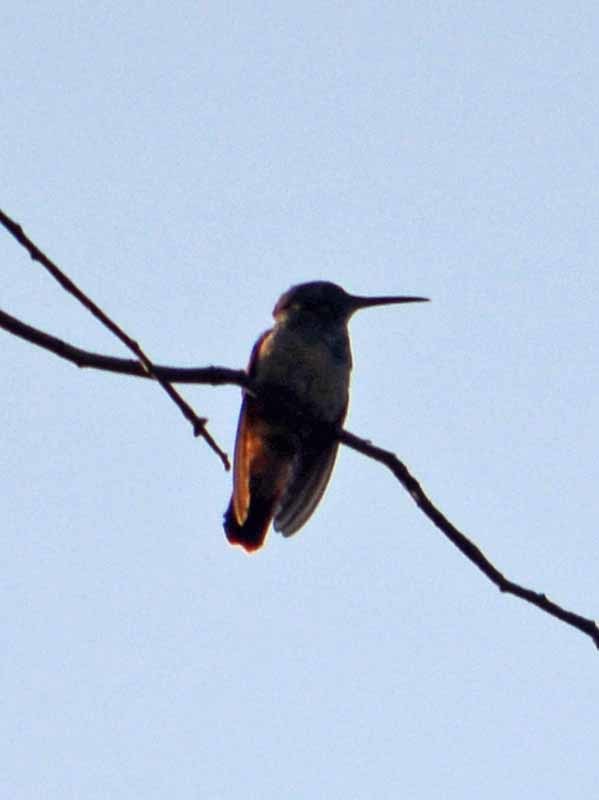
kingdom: Animalia
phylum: Chordata
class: Aves
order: Apodiformes
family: Trochilidae
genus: Saucerottia
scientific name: Saucerottia beryllina
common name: Berylline hummingbird
